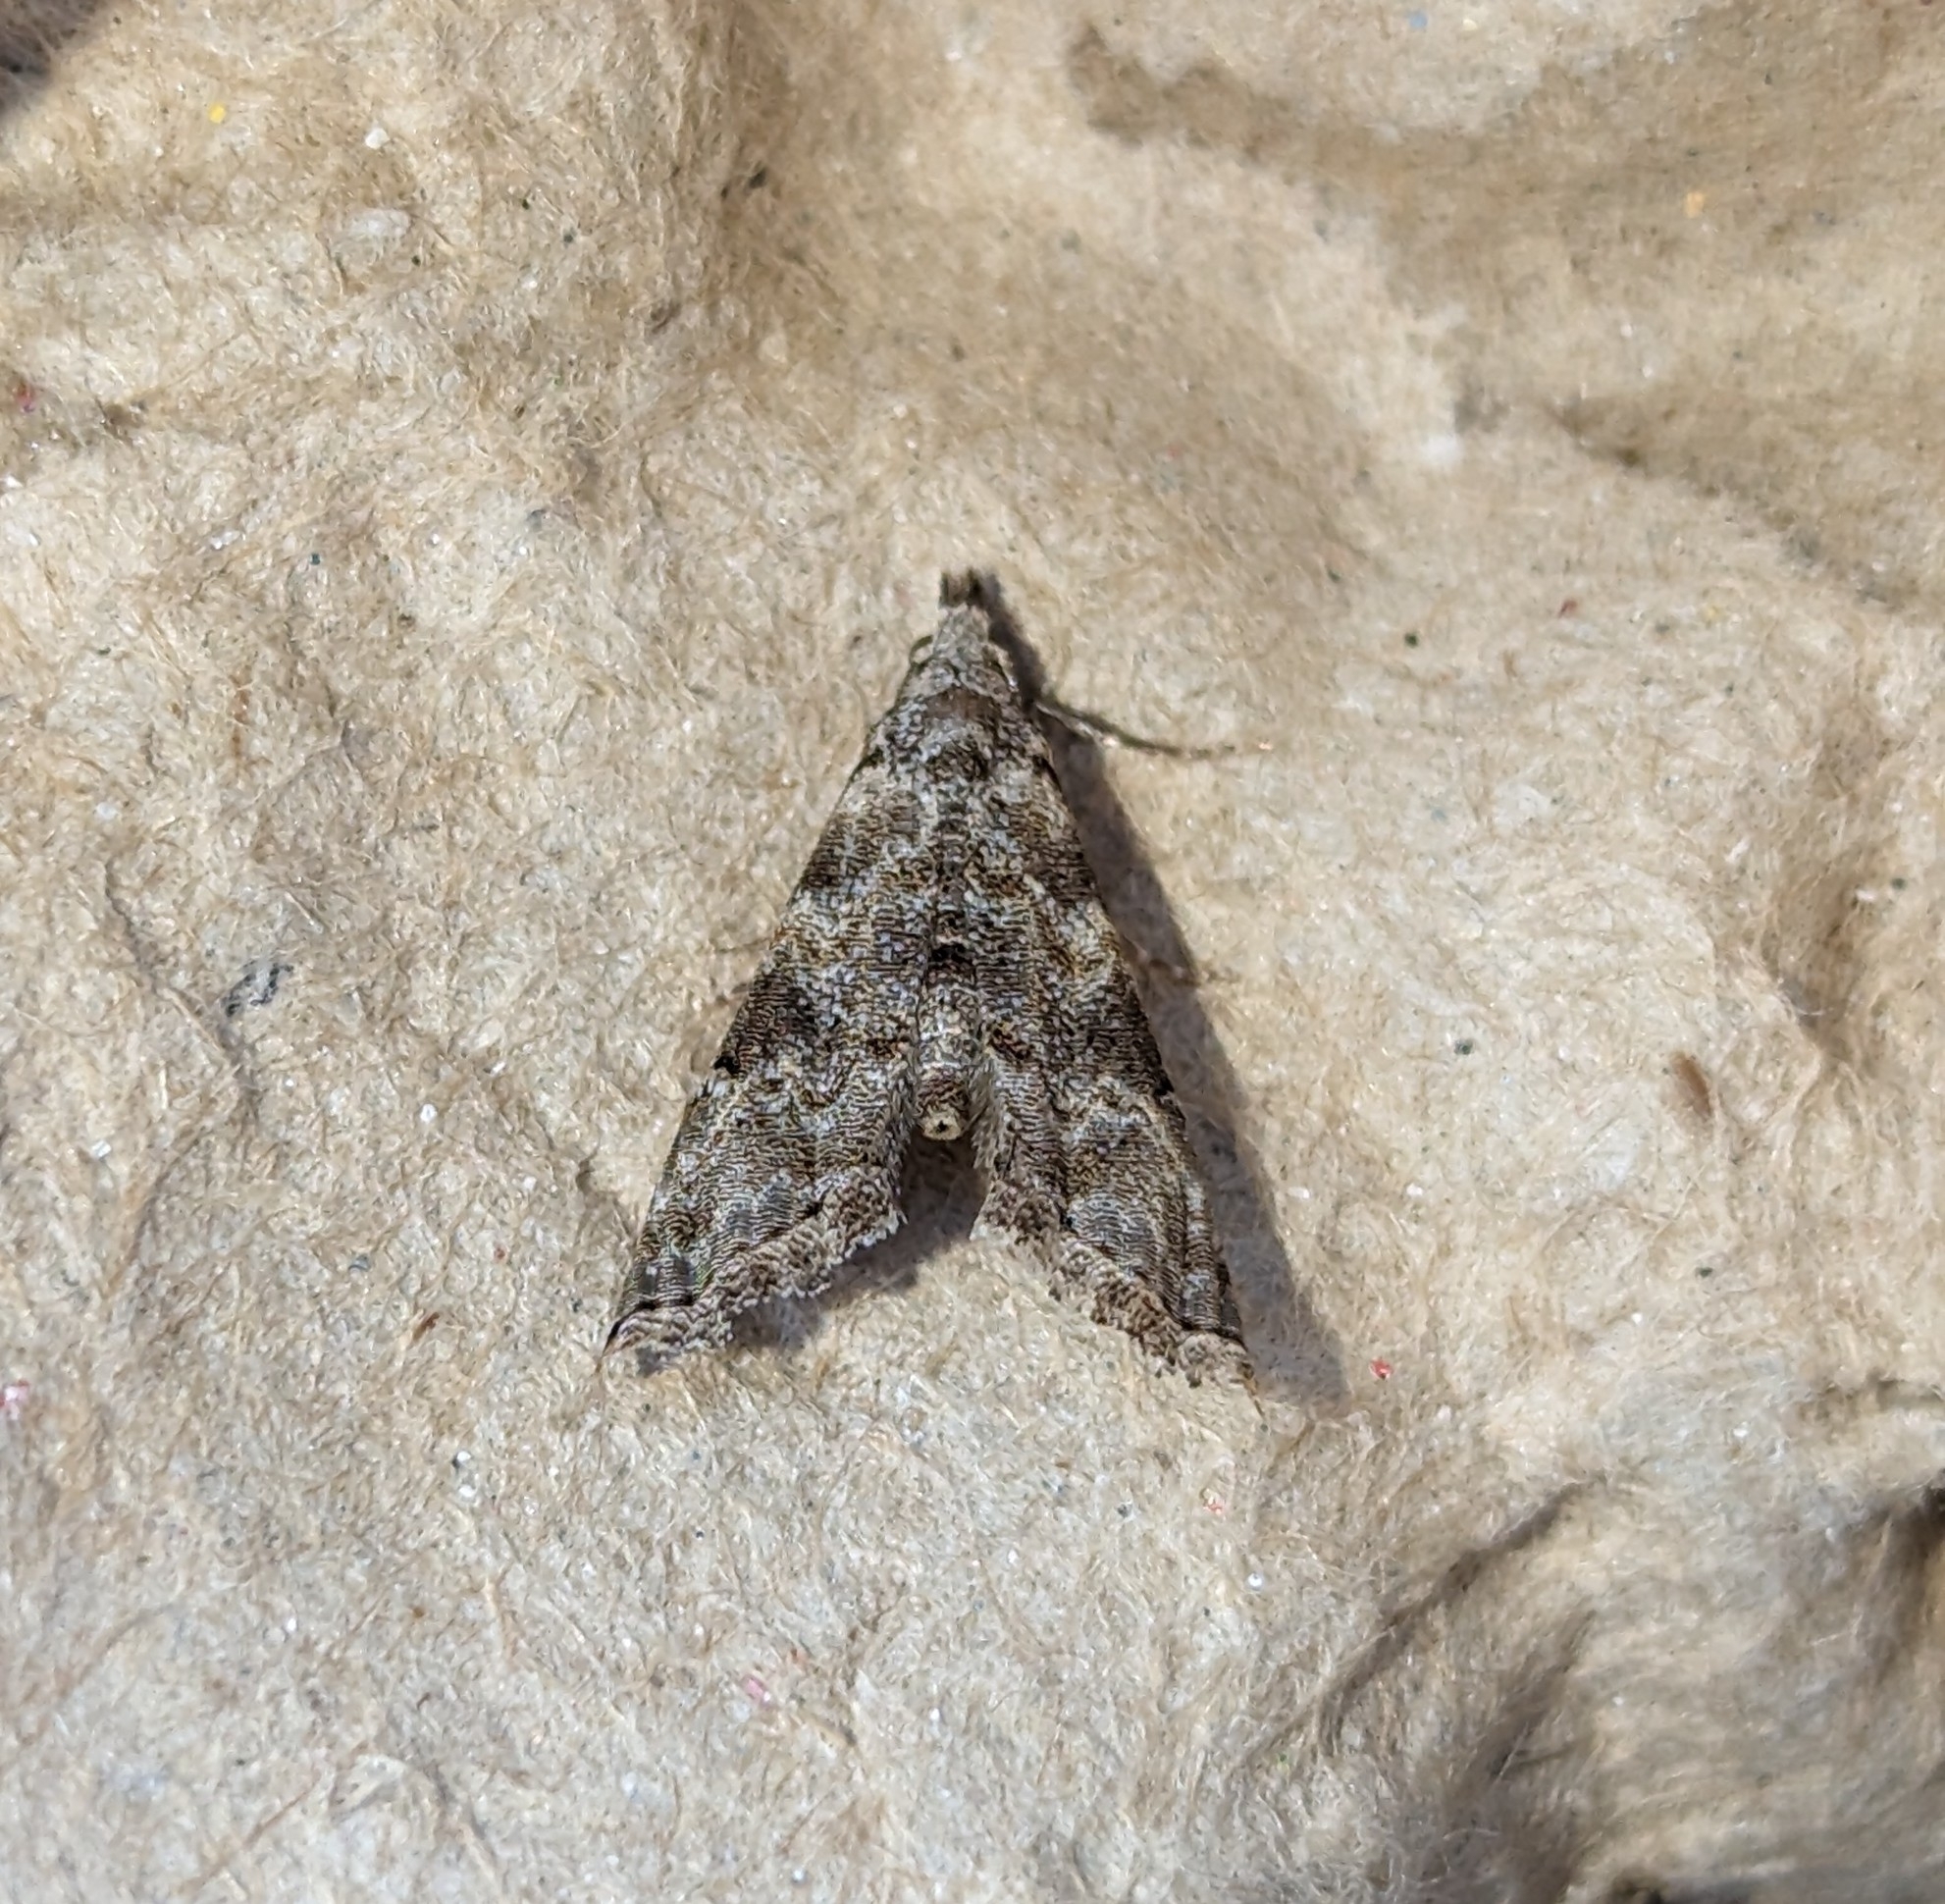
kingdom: Animalia
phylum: Arthropoda
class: Insecta
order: Lepidoptera
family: Noctuidae
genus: Phobolosia
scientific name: Phobolosia anfracta
